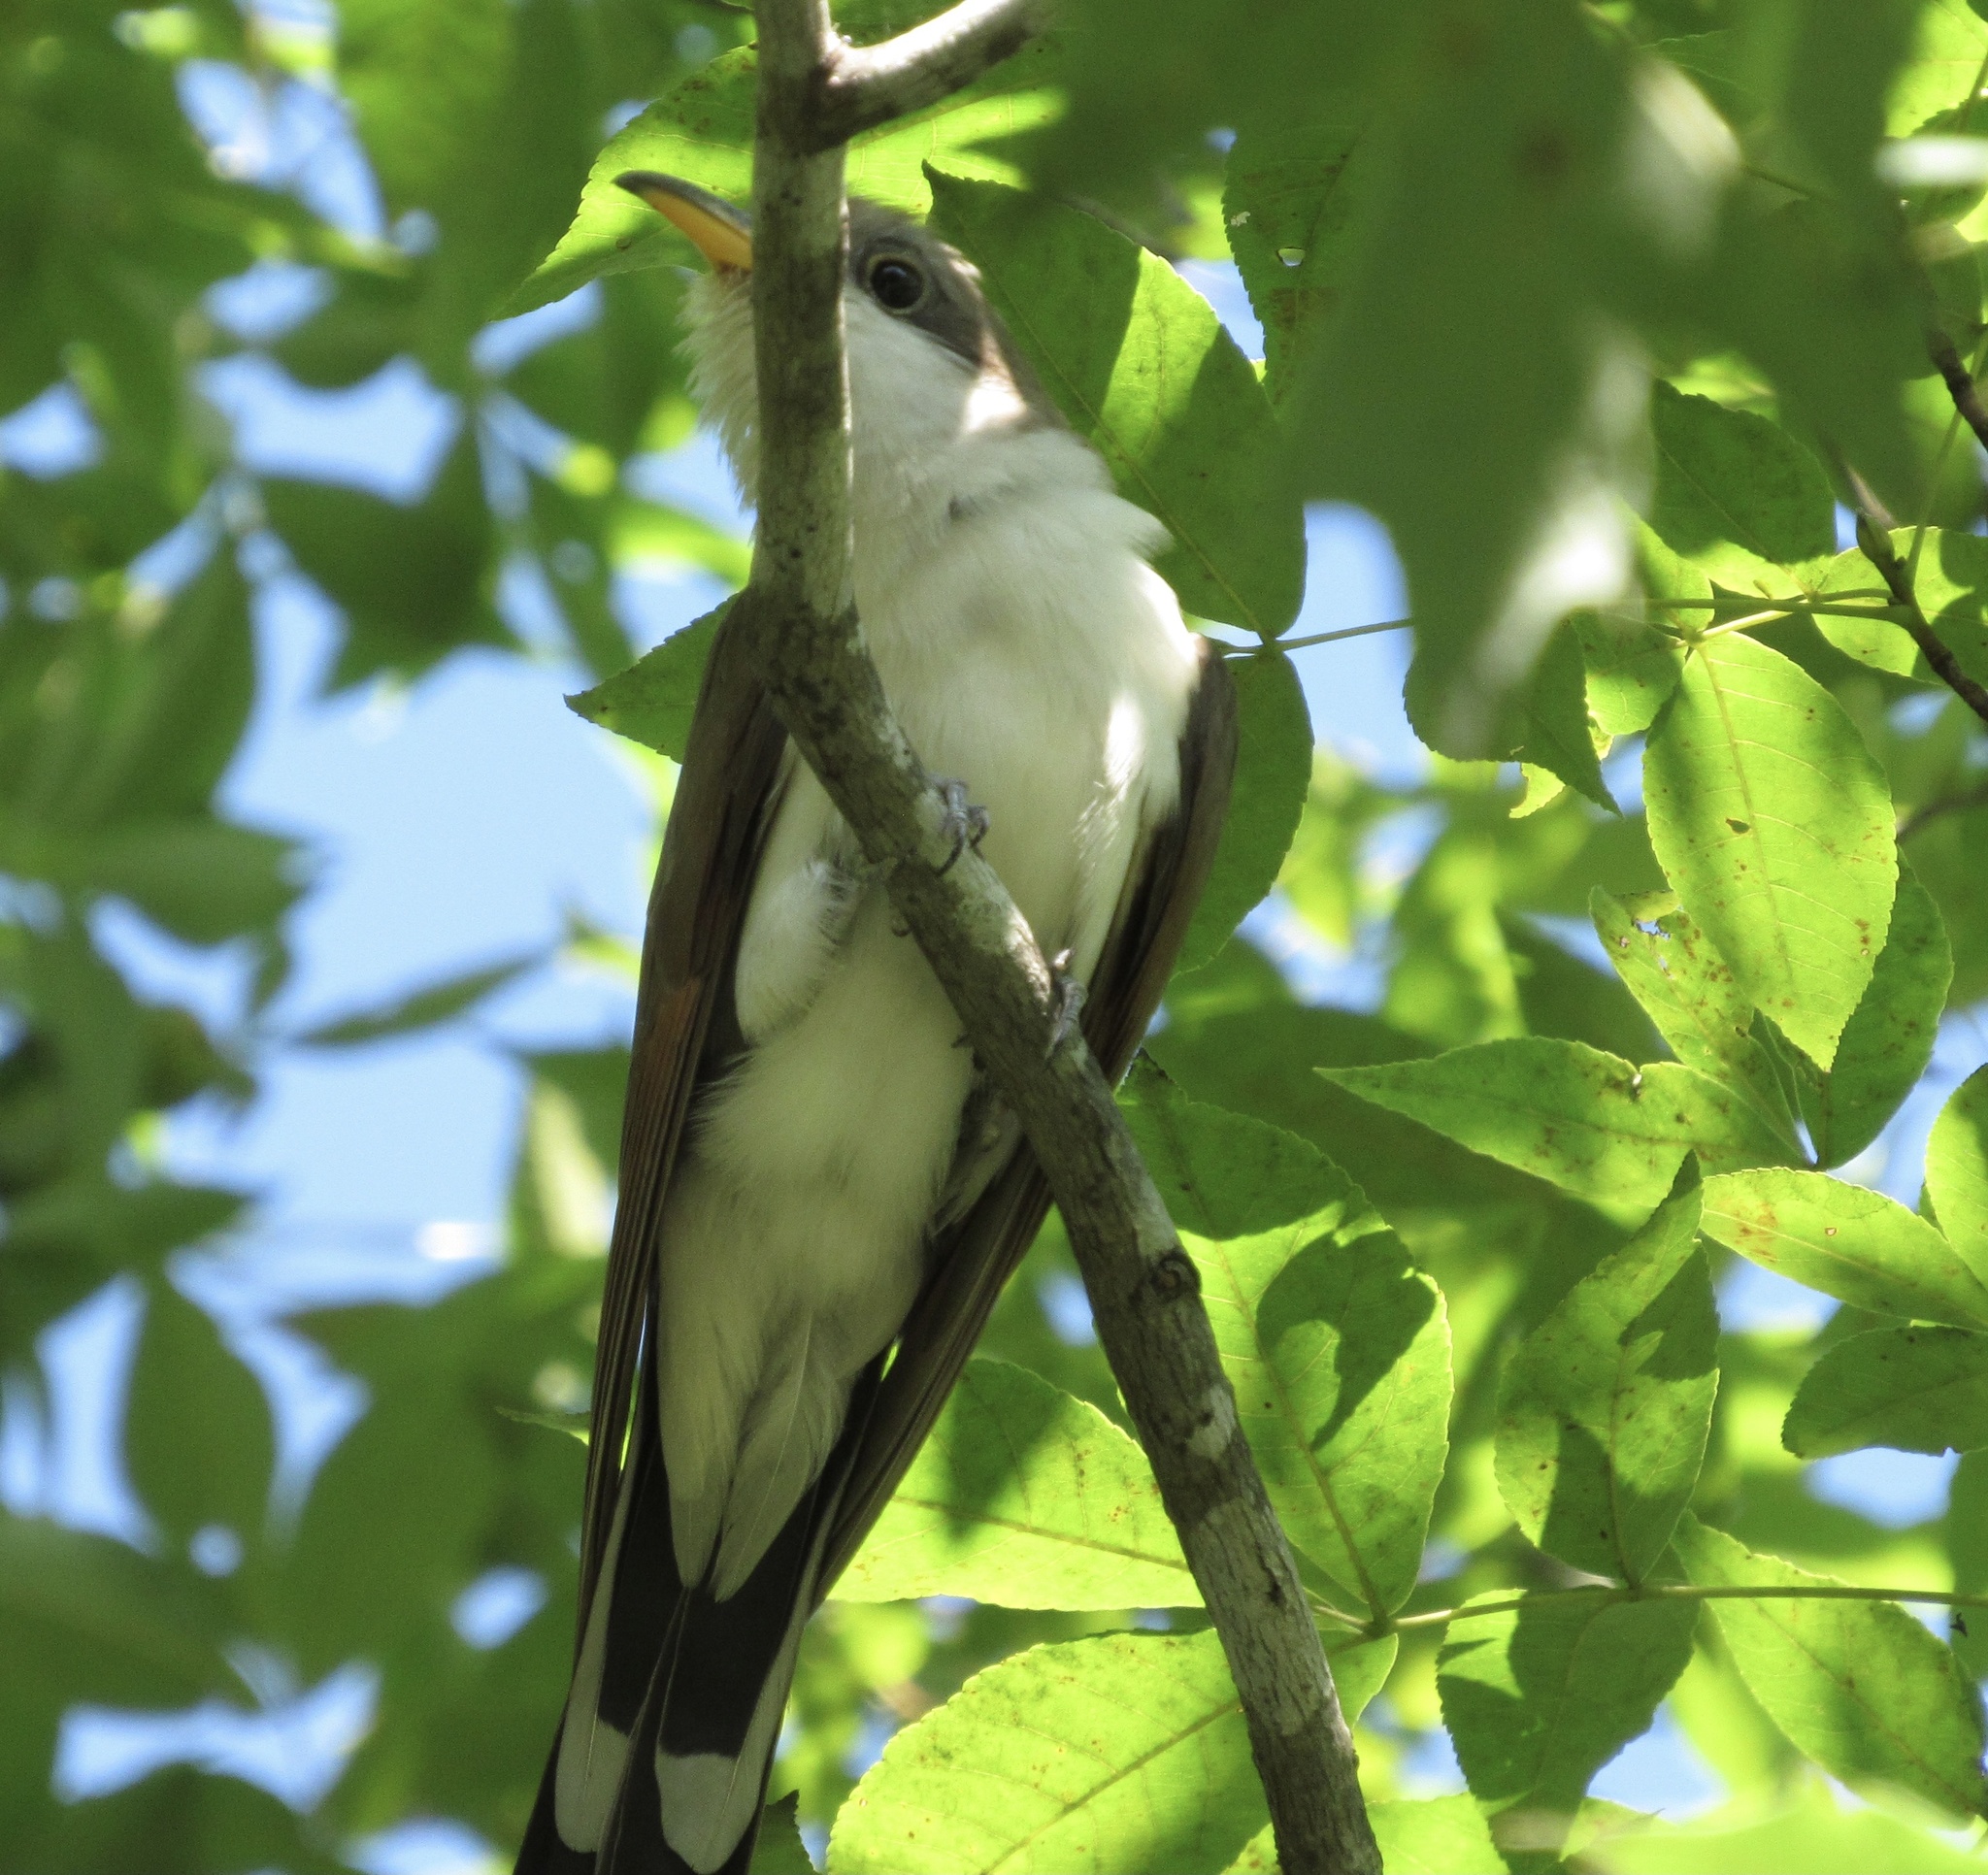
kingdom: Animalia
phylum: Chordata
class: Aves
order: Cuculiformes
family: Cuculidae
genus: Coccyzus
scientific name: Coccyzus americanus
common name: Yellow-billed cuckoo
